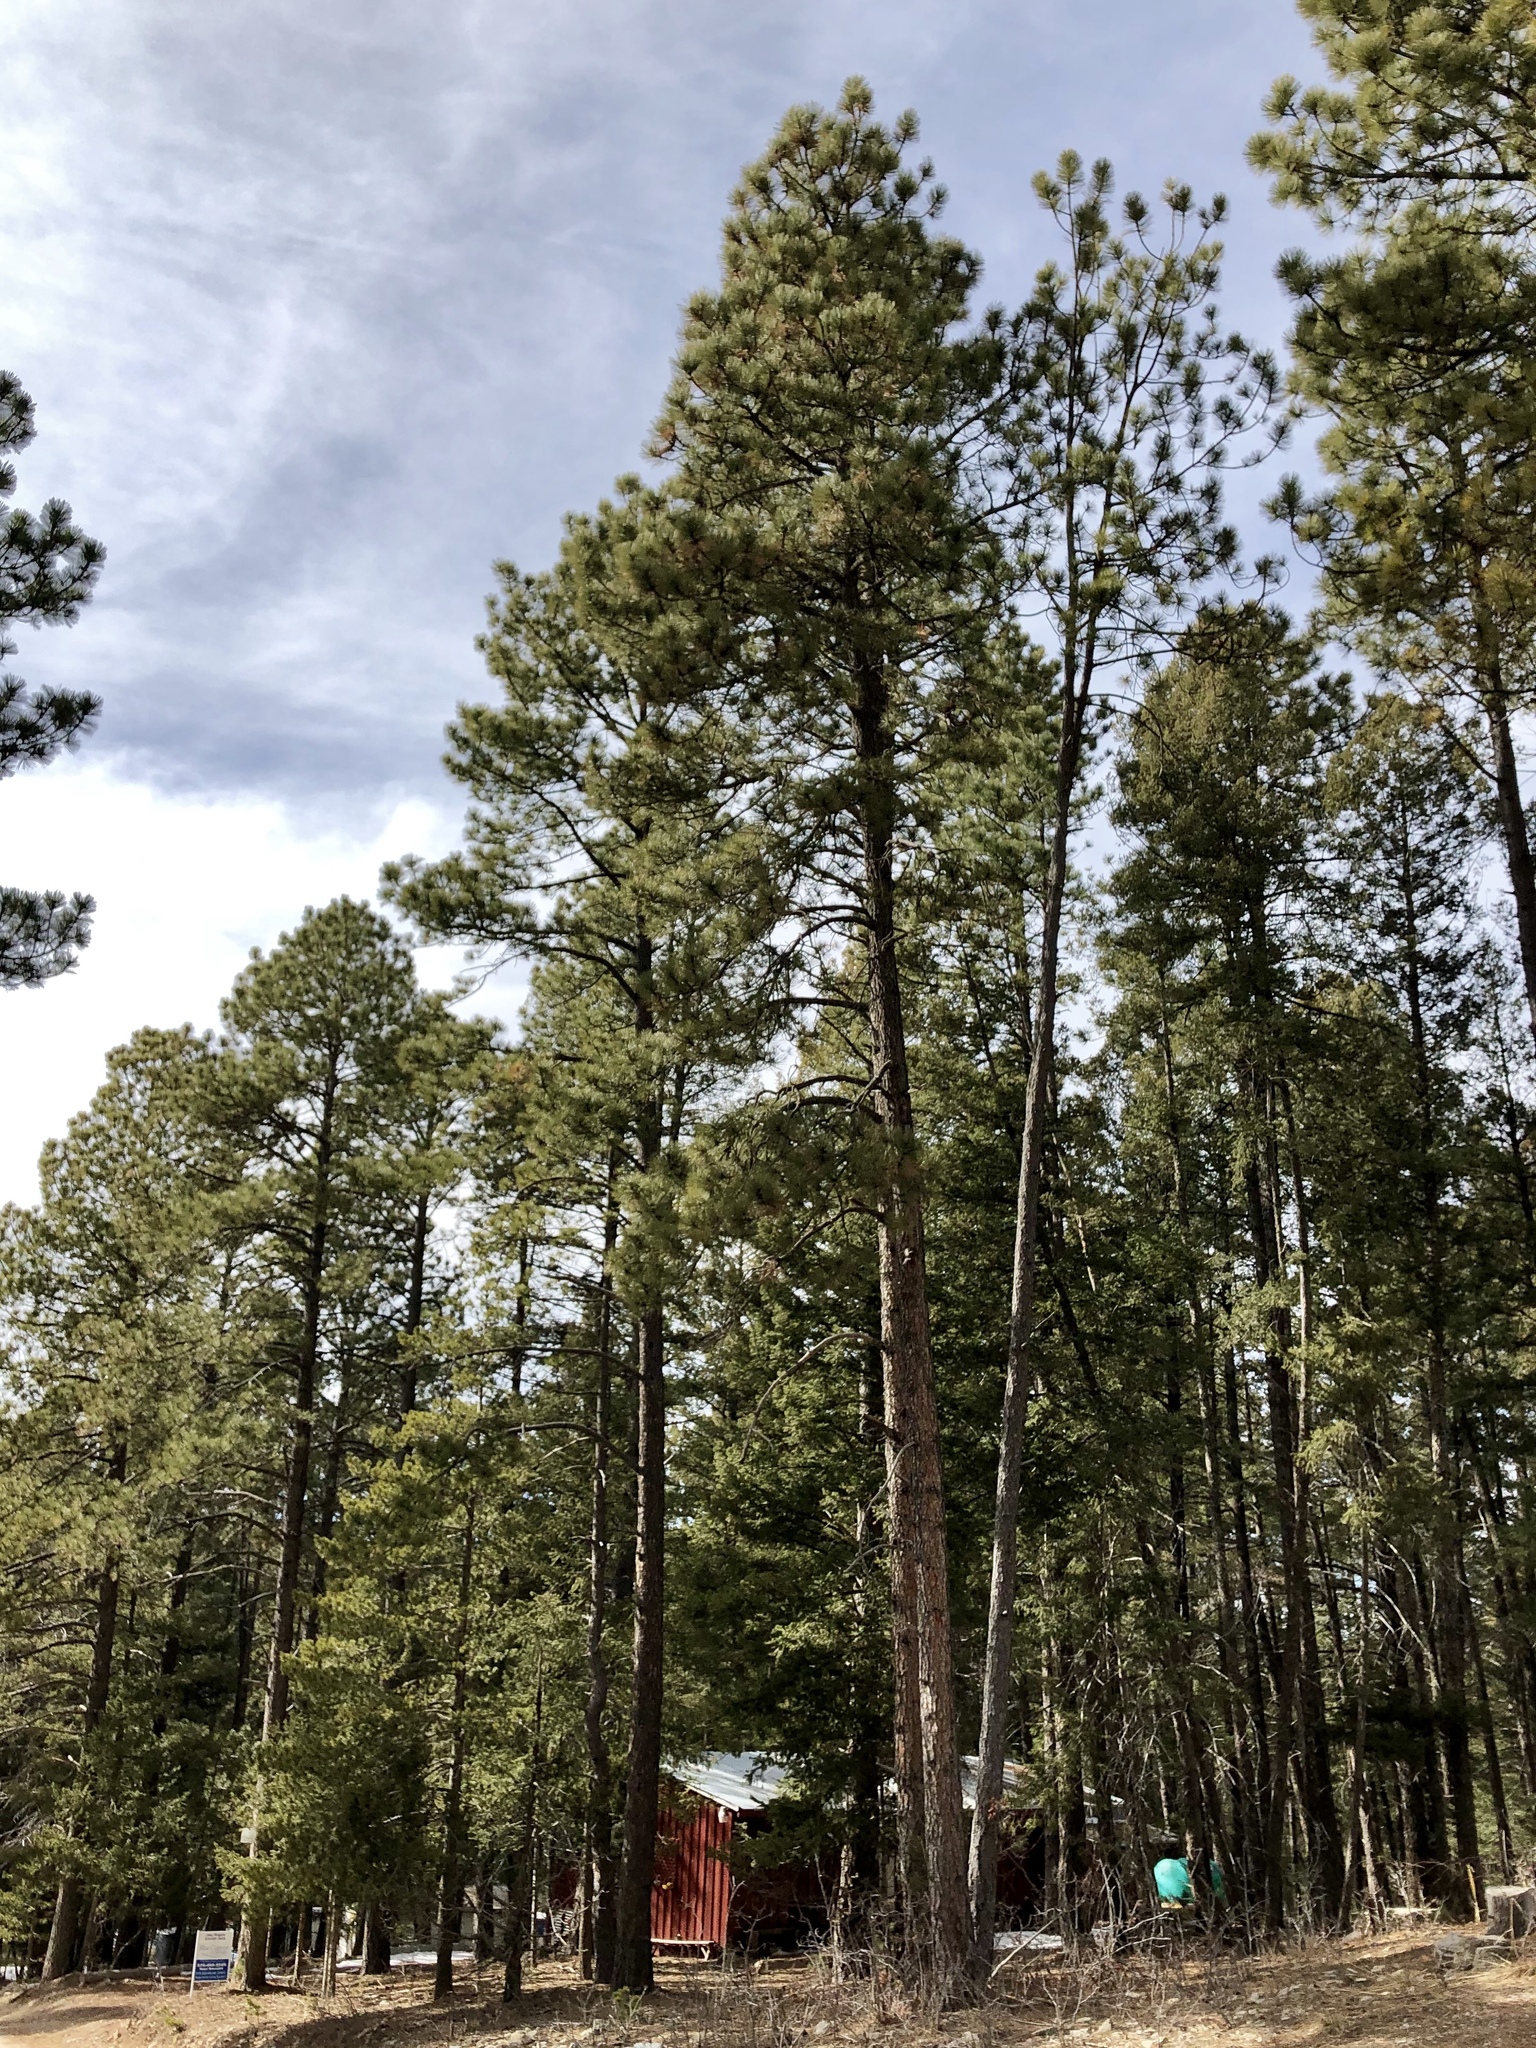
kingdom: Plantae
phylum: Tracheophyta
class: Pinopsida
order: Pinales
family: Pinaceae
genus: Pinus
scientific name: Pinus ponderosa
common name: Western yellow-pine
